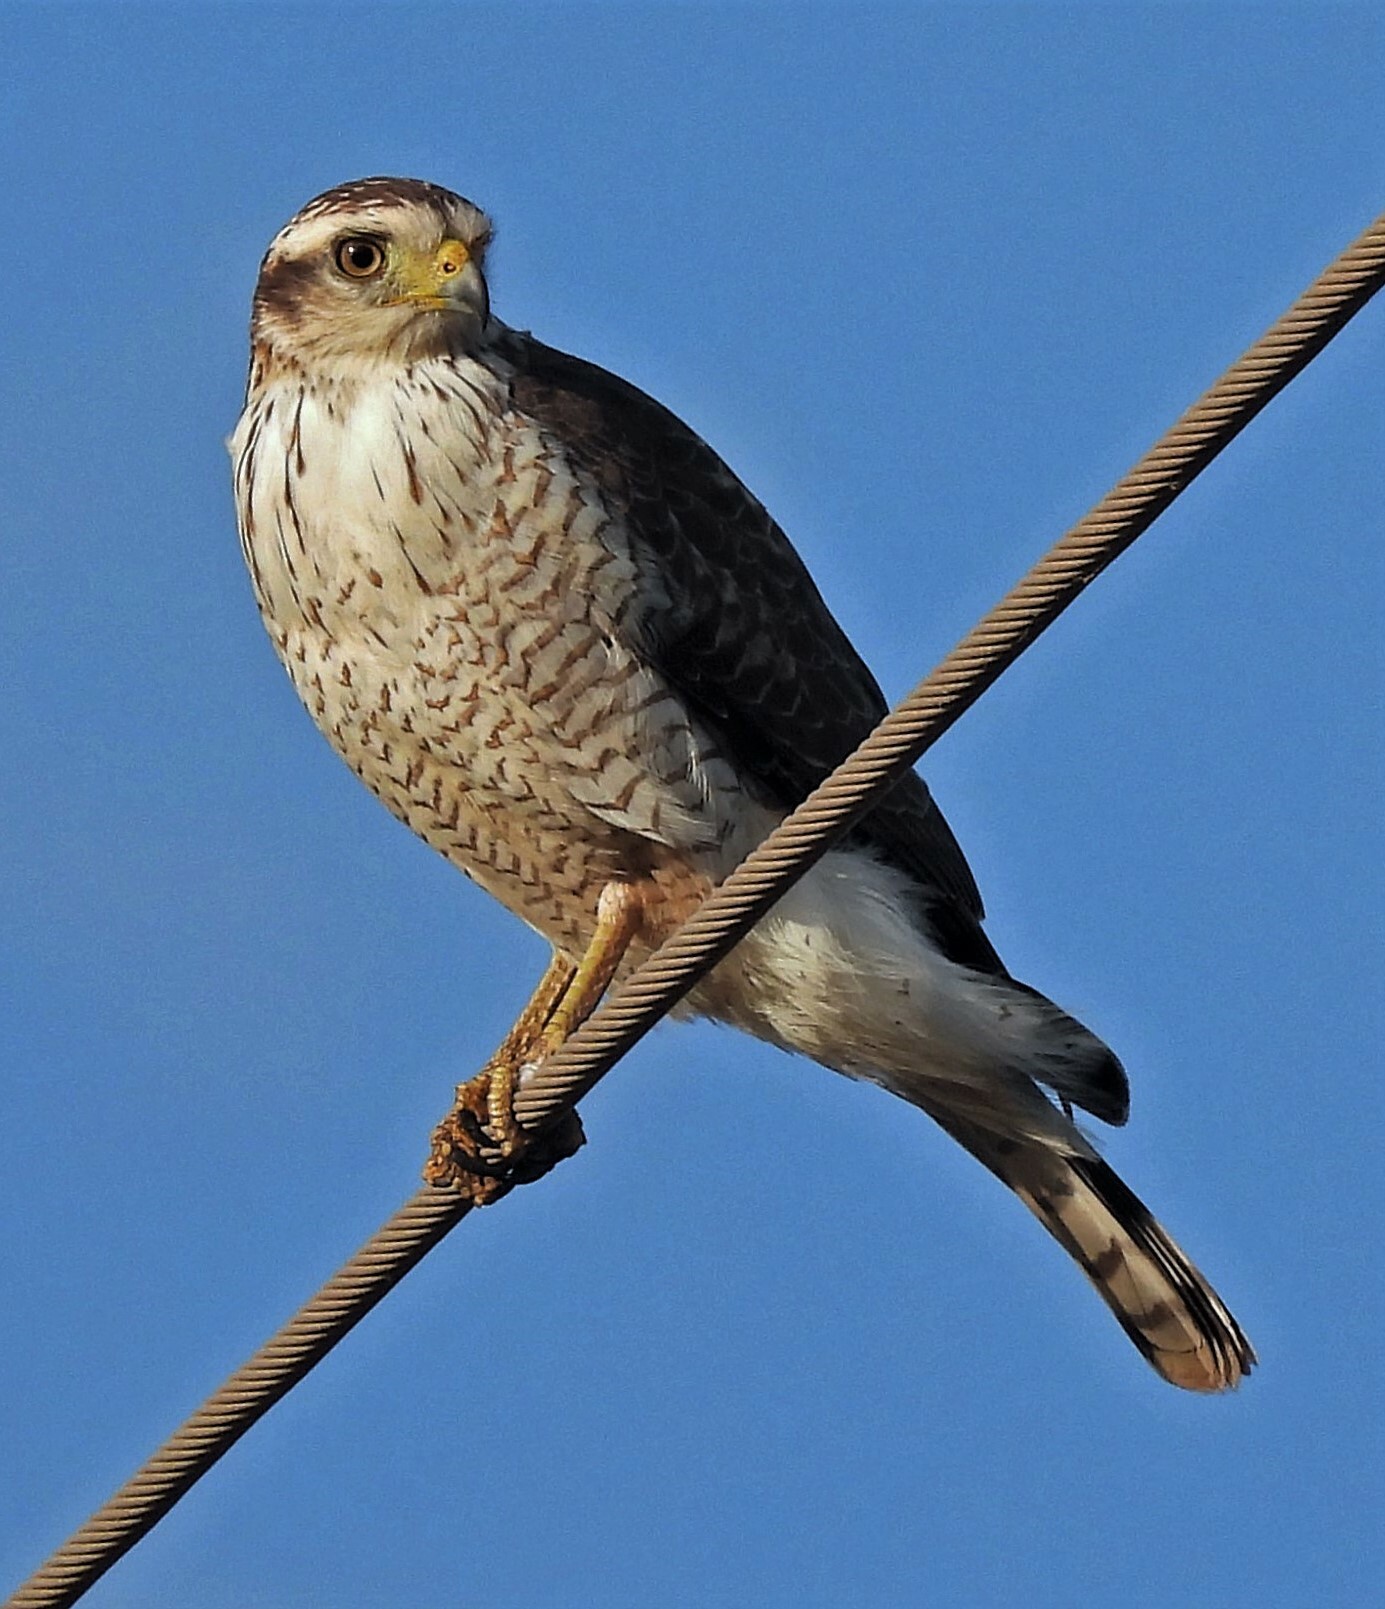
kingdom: Animalia
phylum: Chordata
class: Aves
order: Accipitriformes
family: Accipitridae
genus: Rupornis
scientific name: Rupornis magnirostris
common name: Roadside hawk
